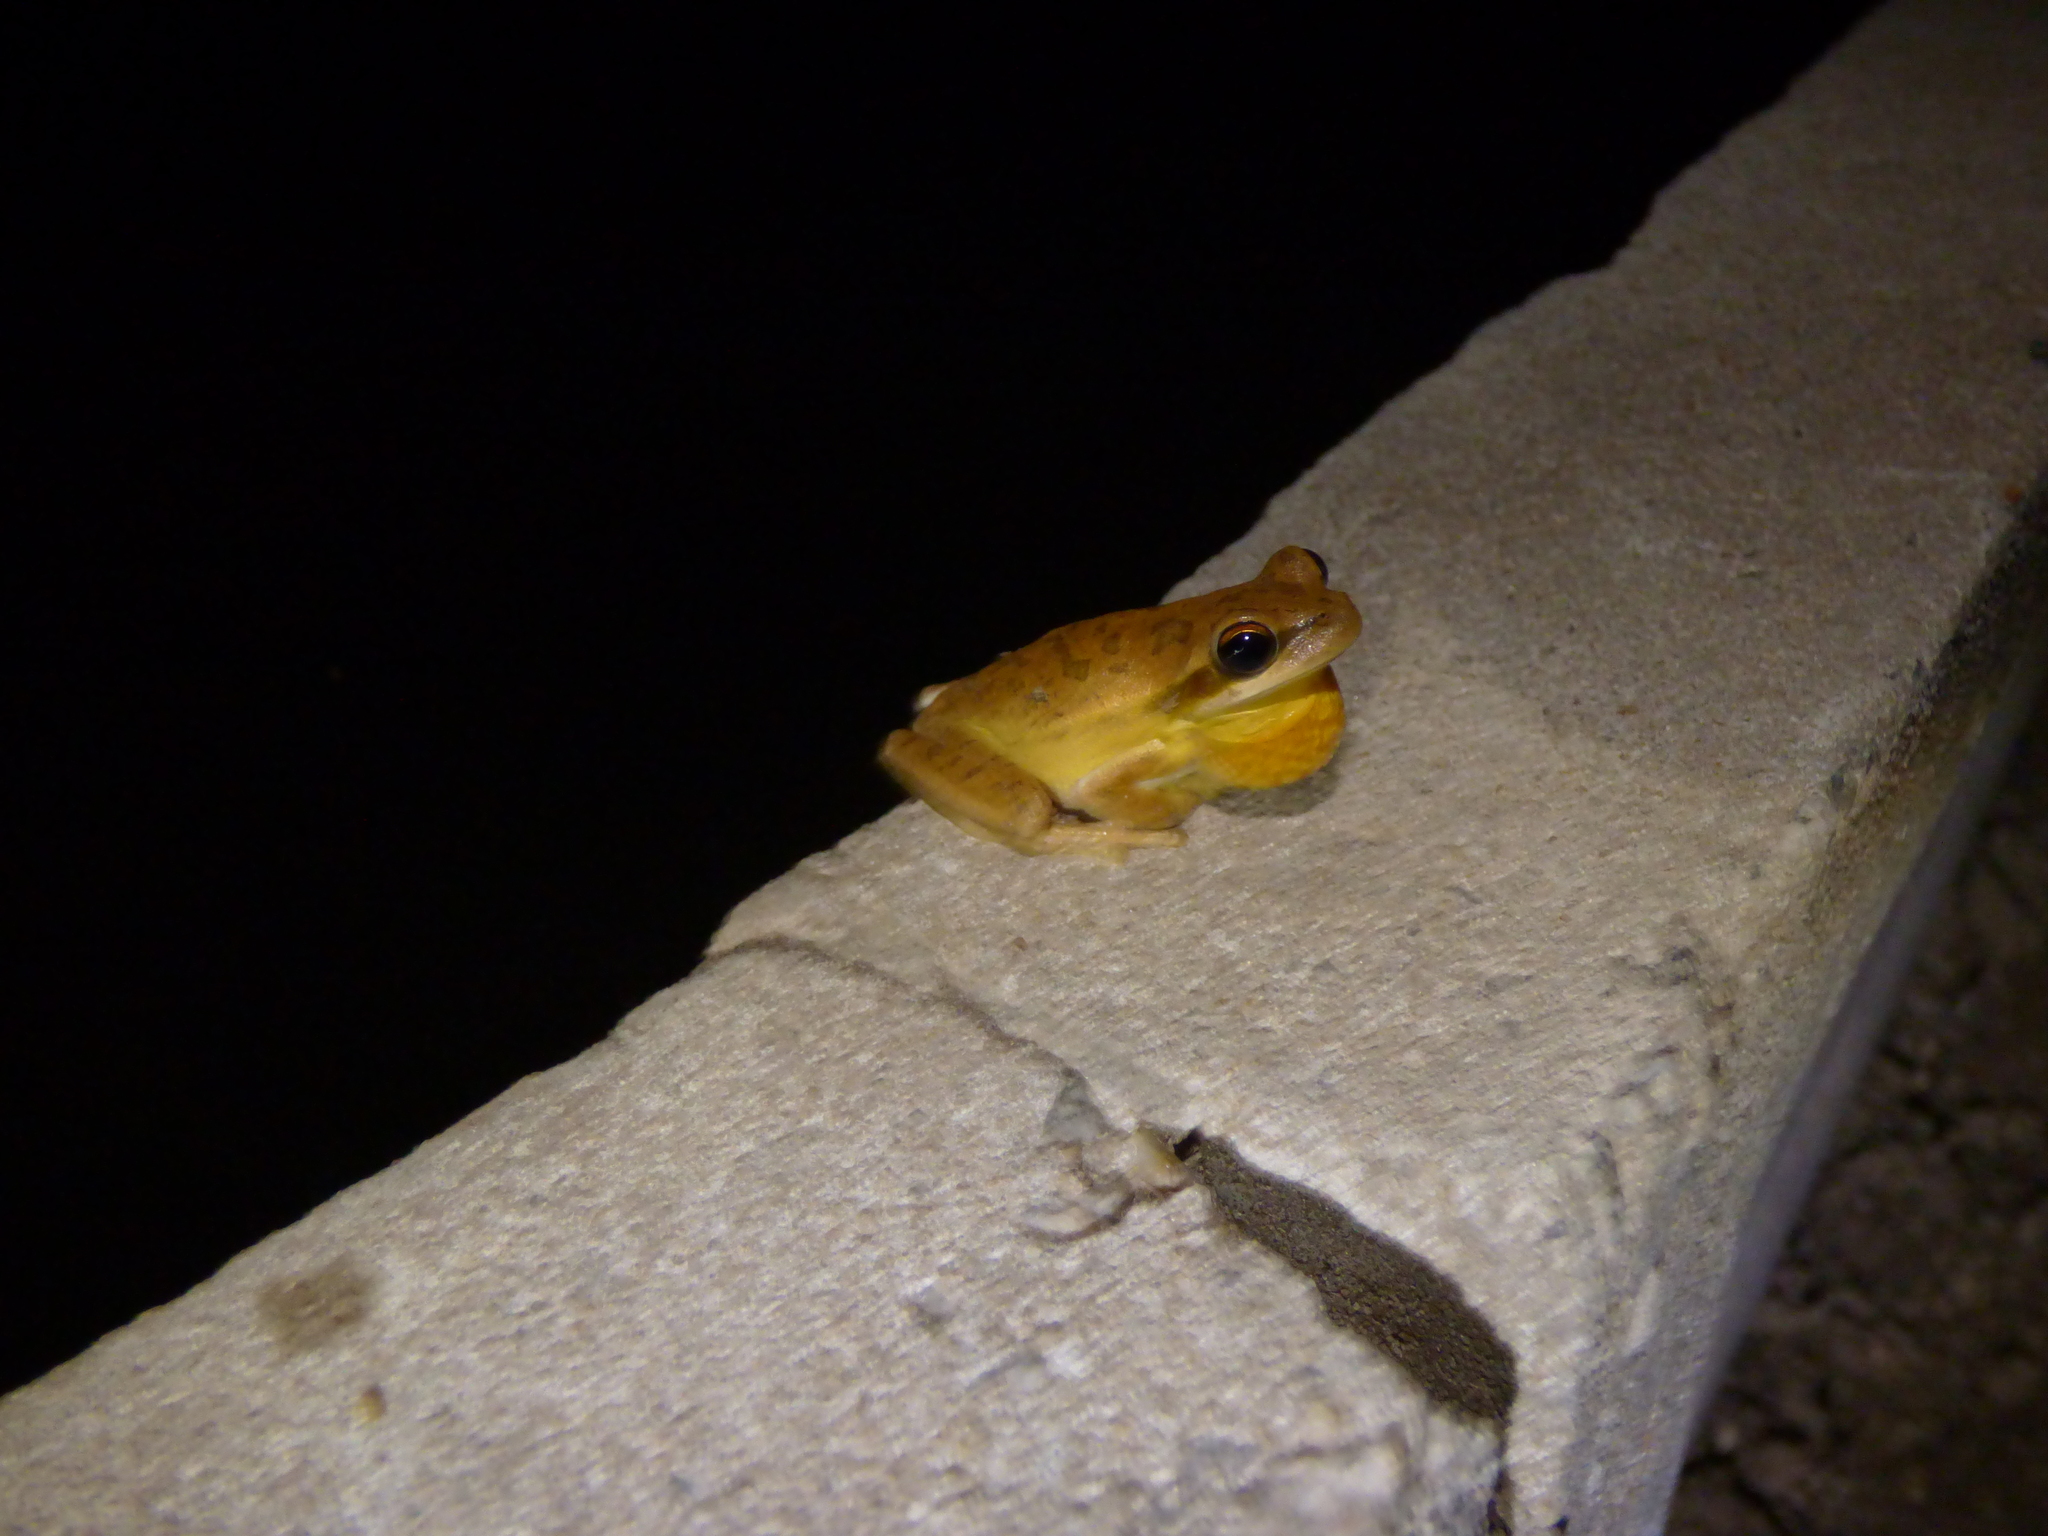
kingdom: Animalia
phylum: Chordata
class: Amphibia
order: Anura
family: Hylidae
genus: Boana
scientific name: Boana pulchella
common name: Montevideo treefrog
